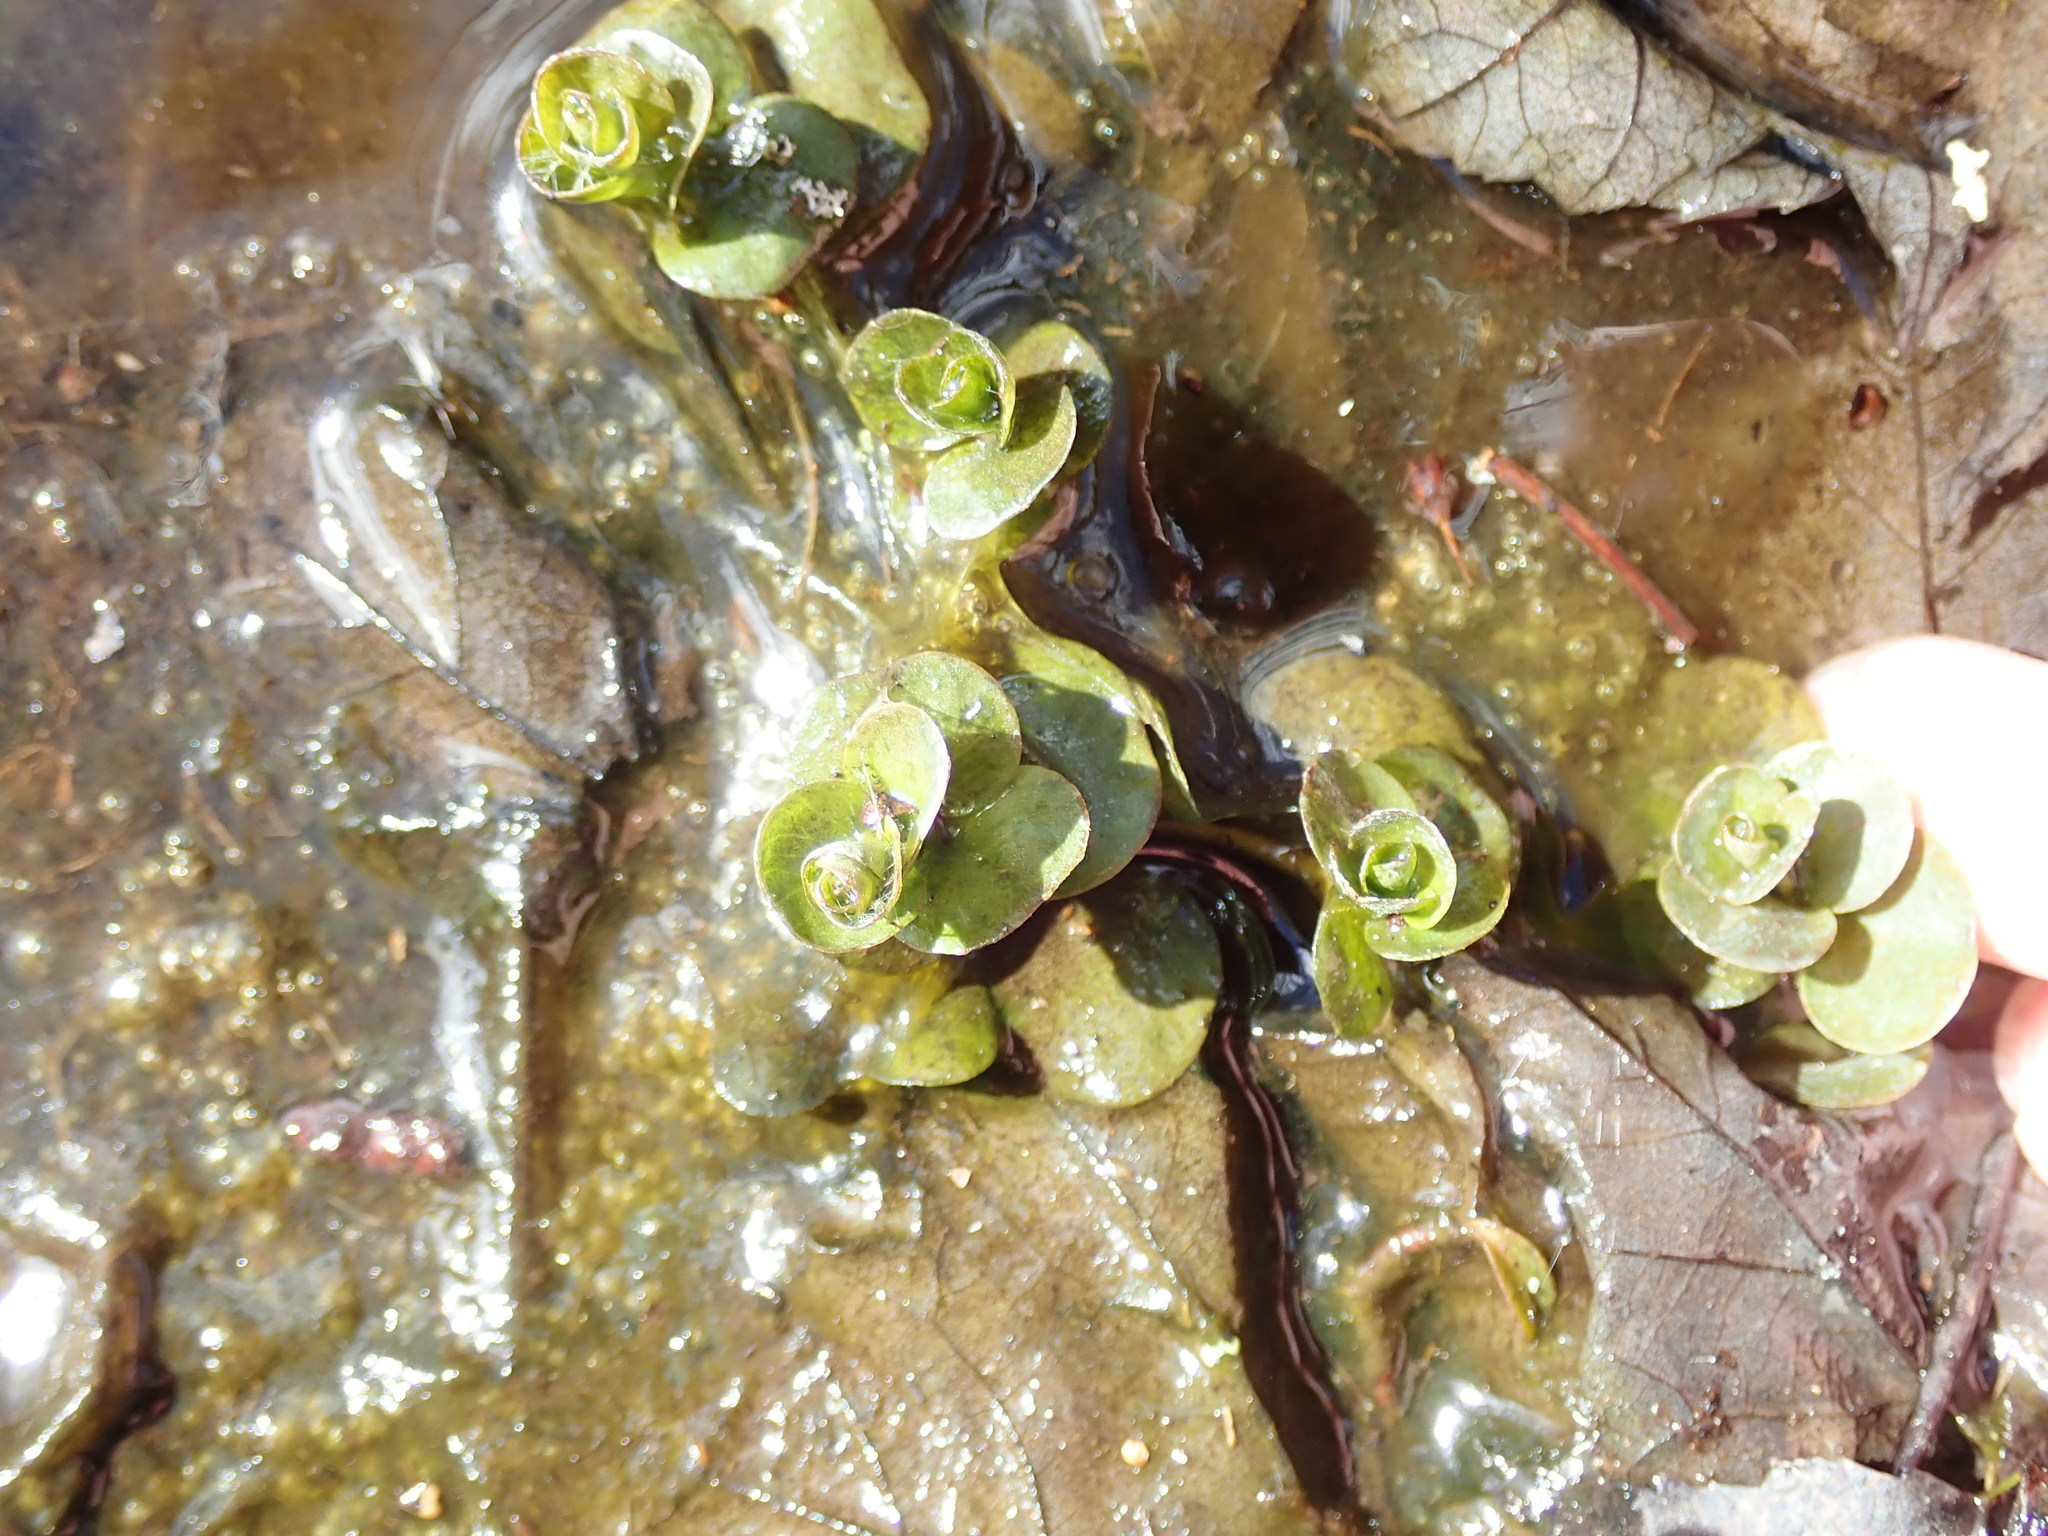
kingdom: Plantae
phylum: Tracheophyta
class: Magnoliopsida
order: Ericales
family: Primulaceae
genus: Lysimachia
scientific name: Lysimachia nummularia
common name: Moneywort
